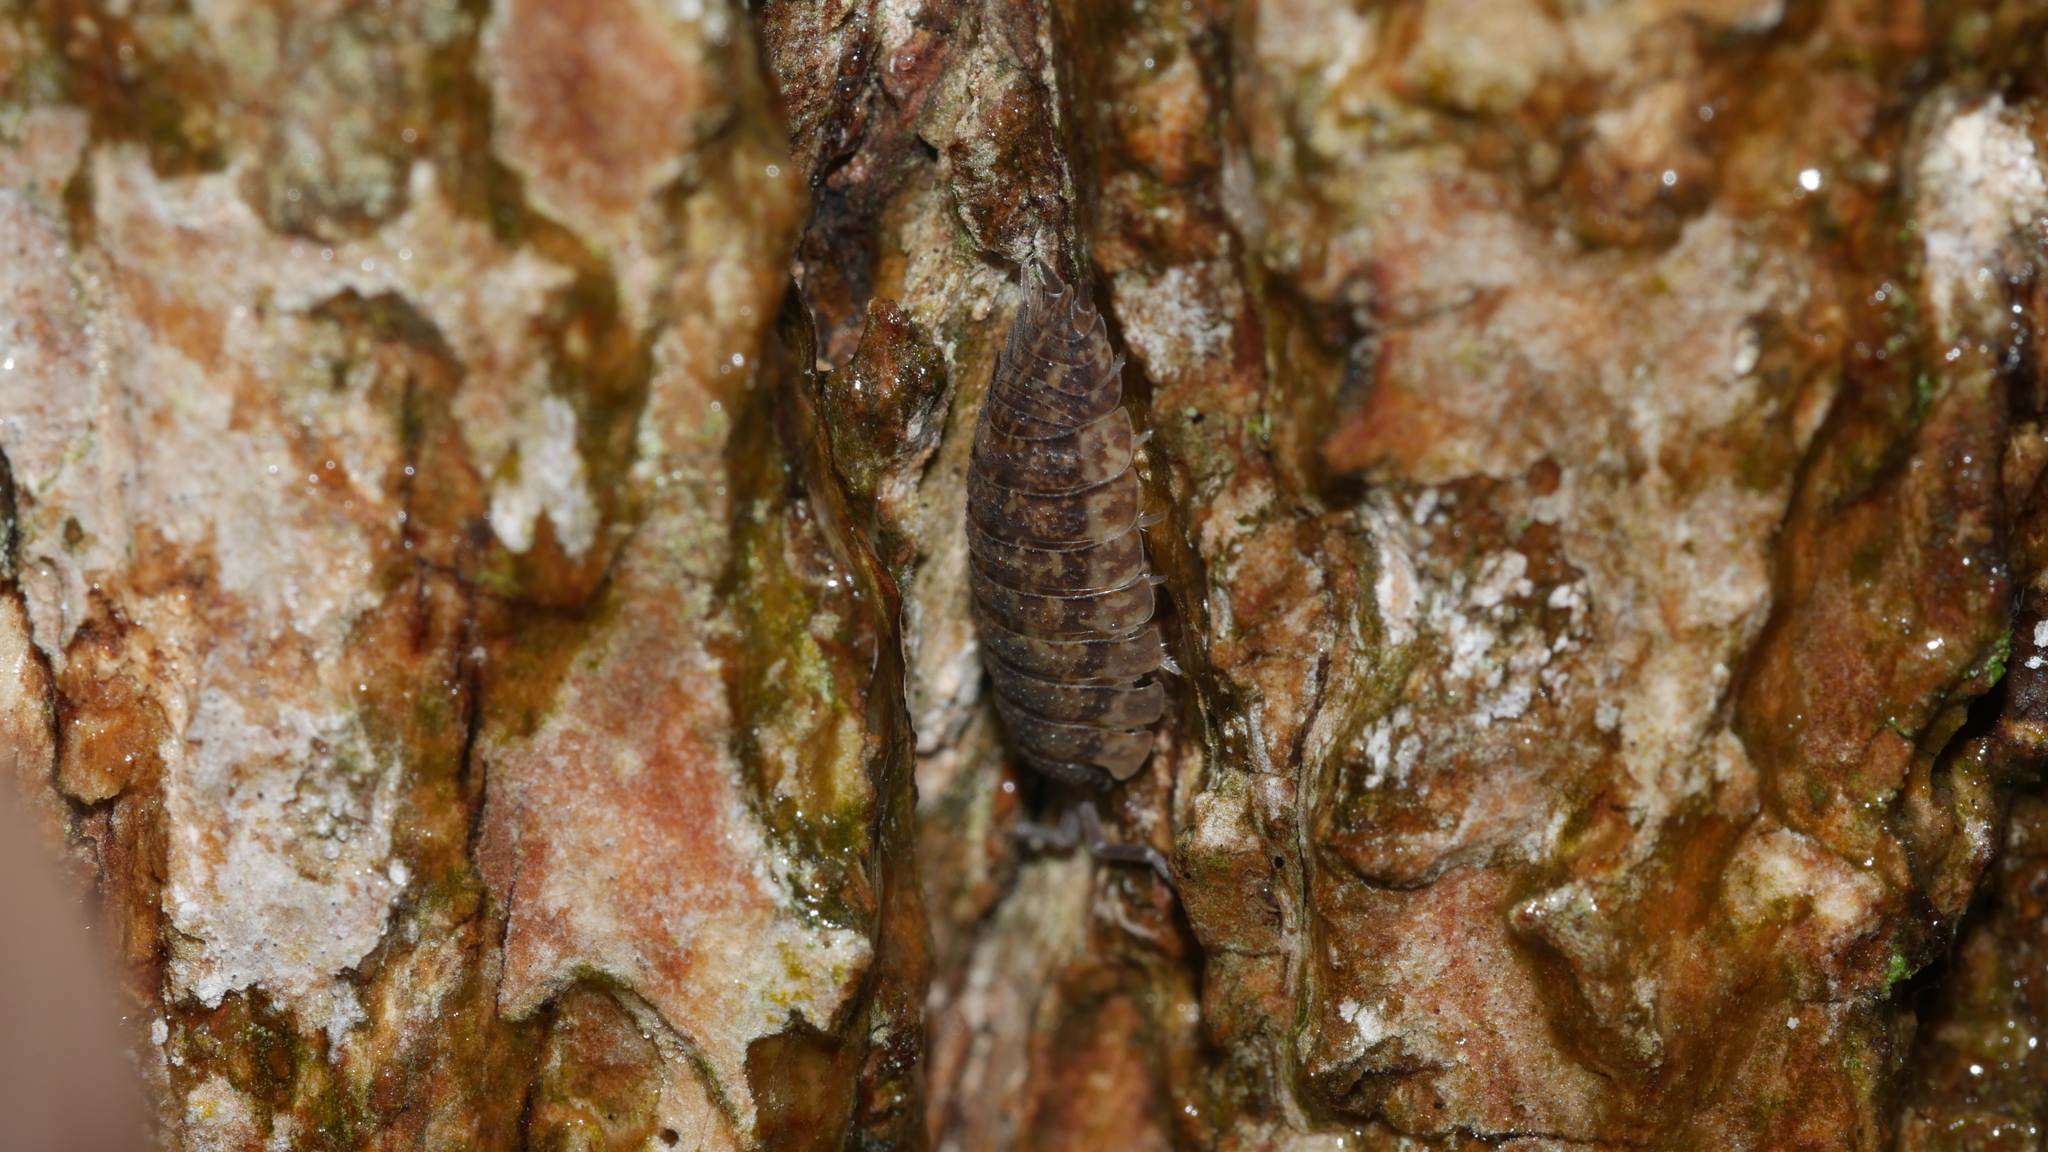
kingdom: Animalia
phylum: Arthropoda
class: Malacostraca
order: Isopoda
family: Porcellionidae
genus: Porcellio
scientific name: Porcellio scaber
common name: Common rough woodlouse
